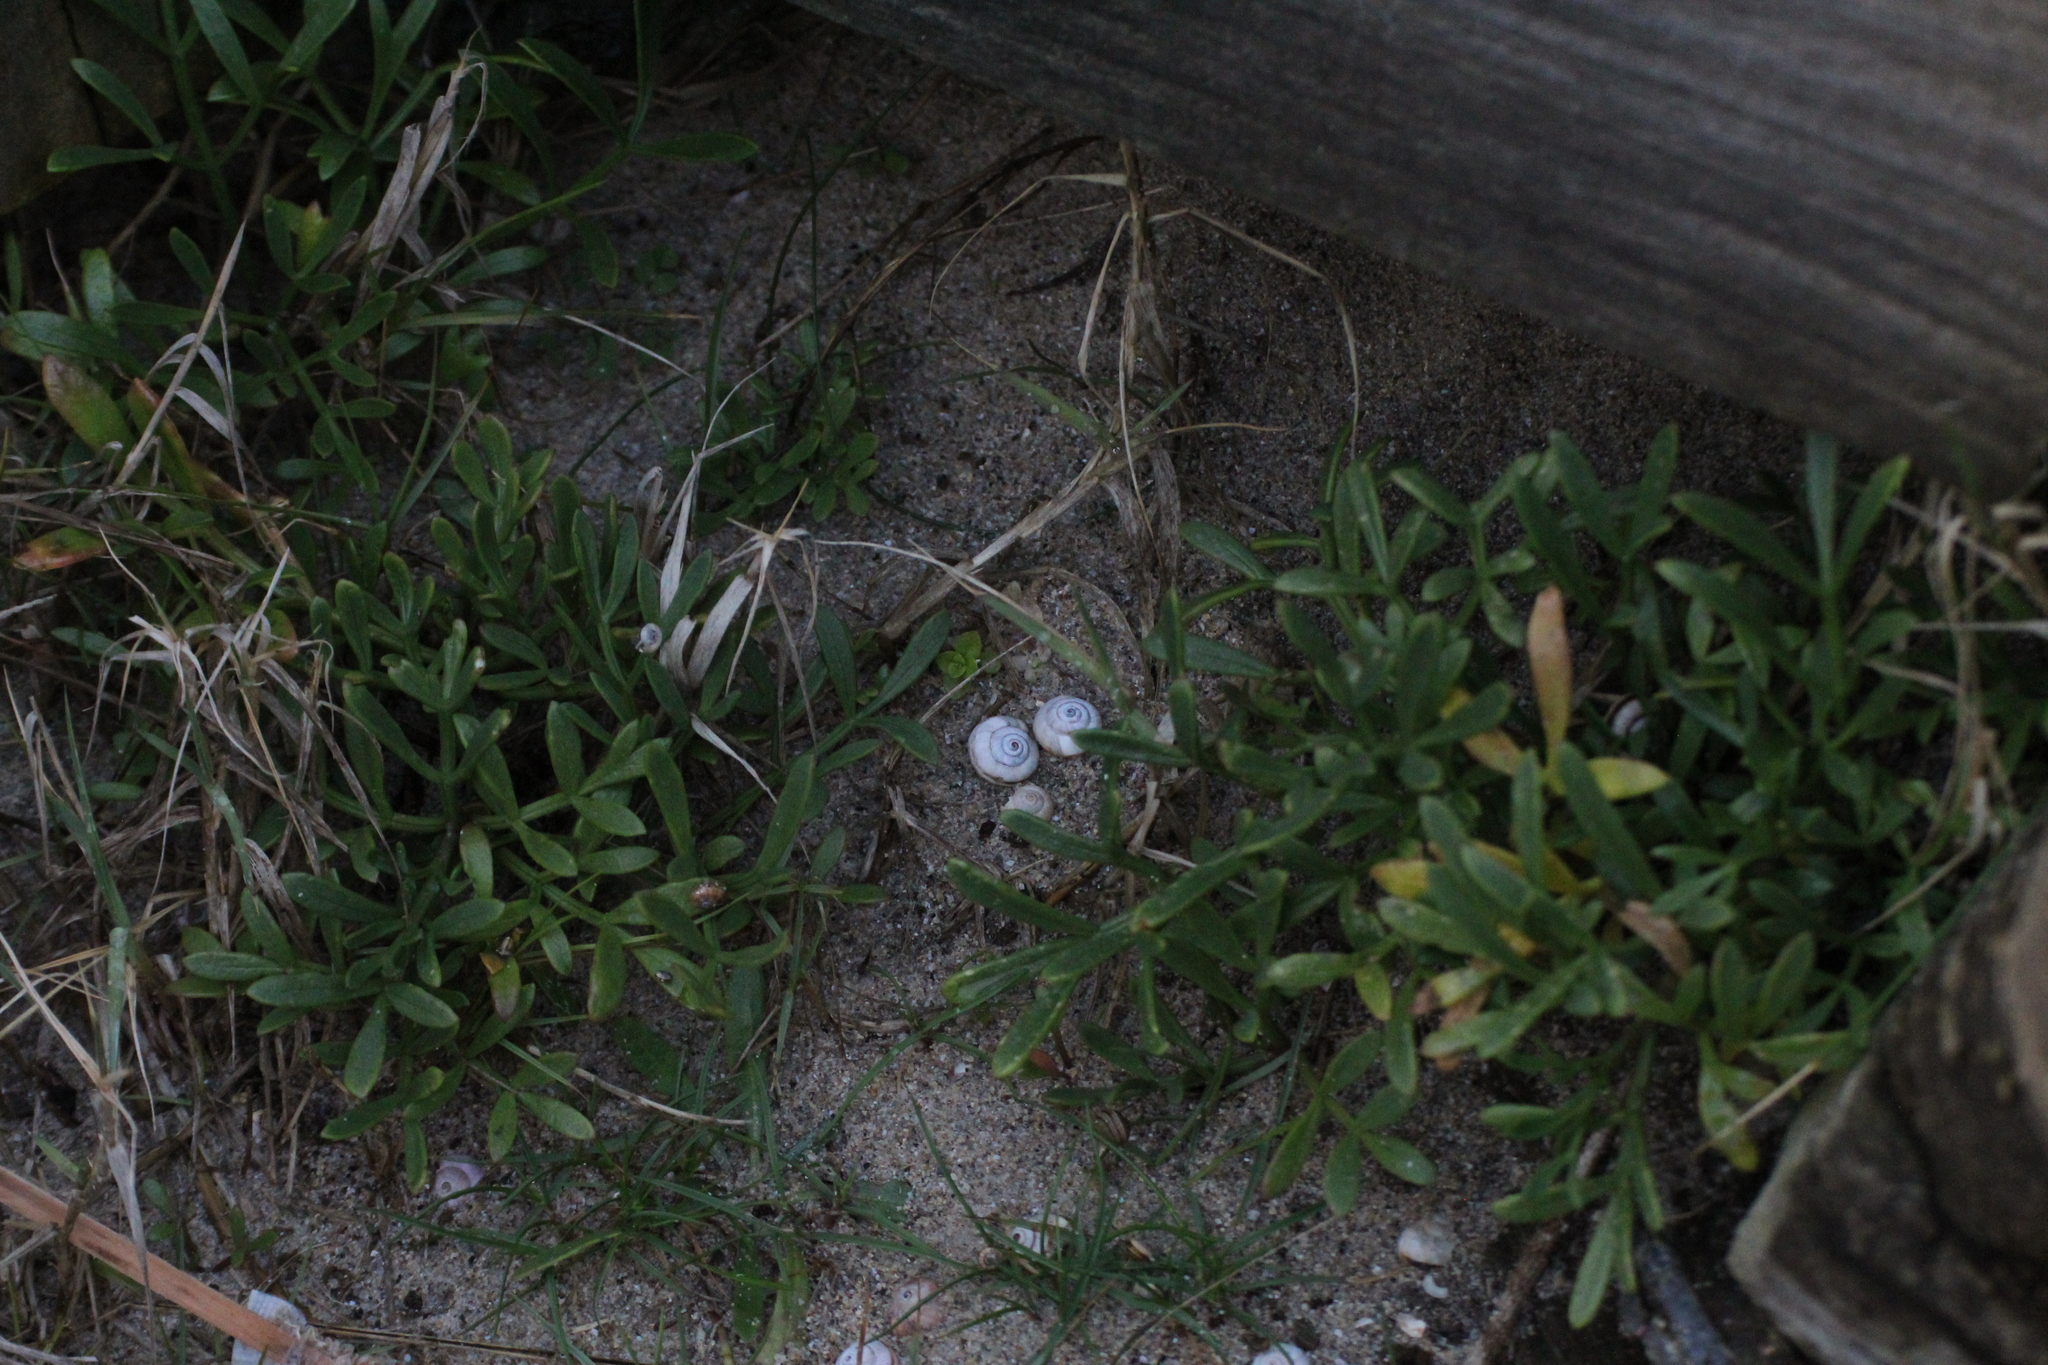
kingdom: Animalia
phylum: Mollusca
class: Gastropoda
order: Stylommatophora
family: Helicidae
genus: Theba
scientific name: Theba pisana
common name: White snail
